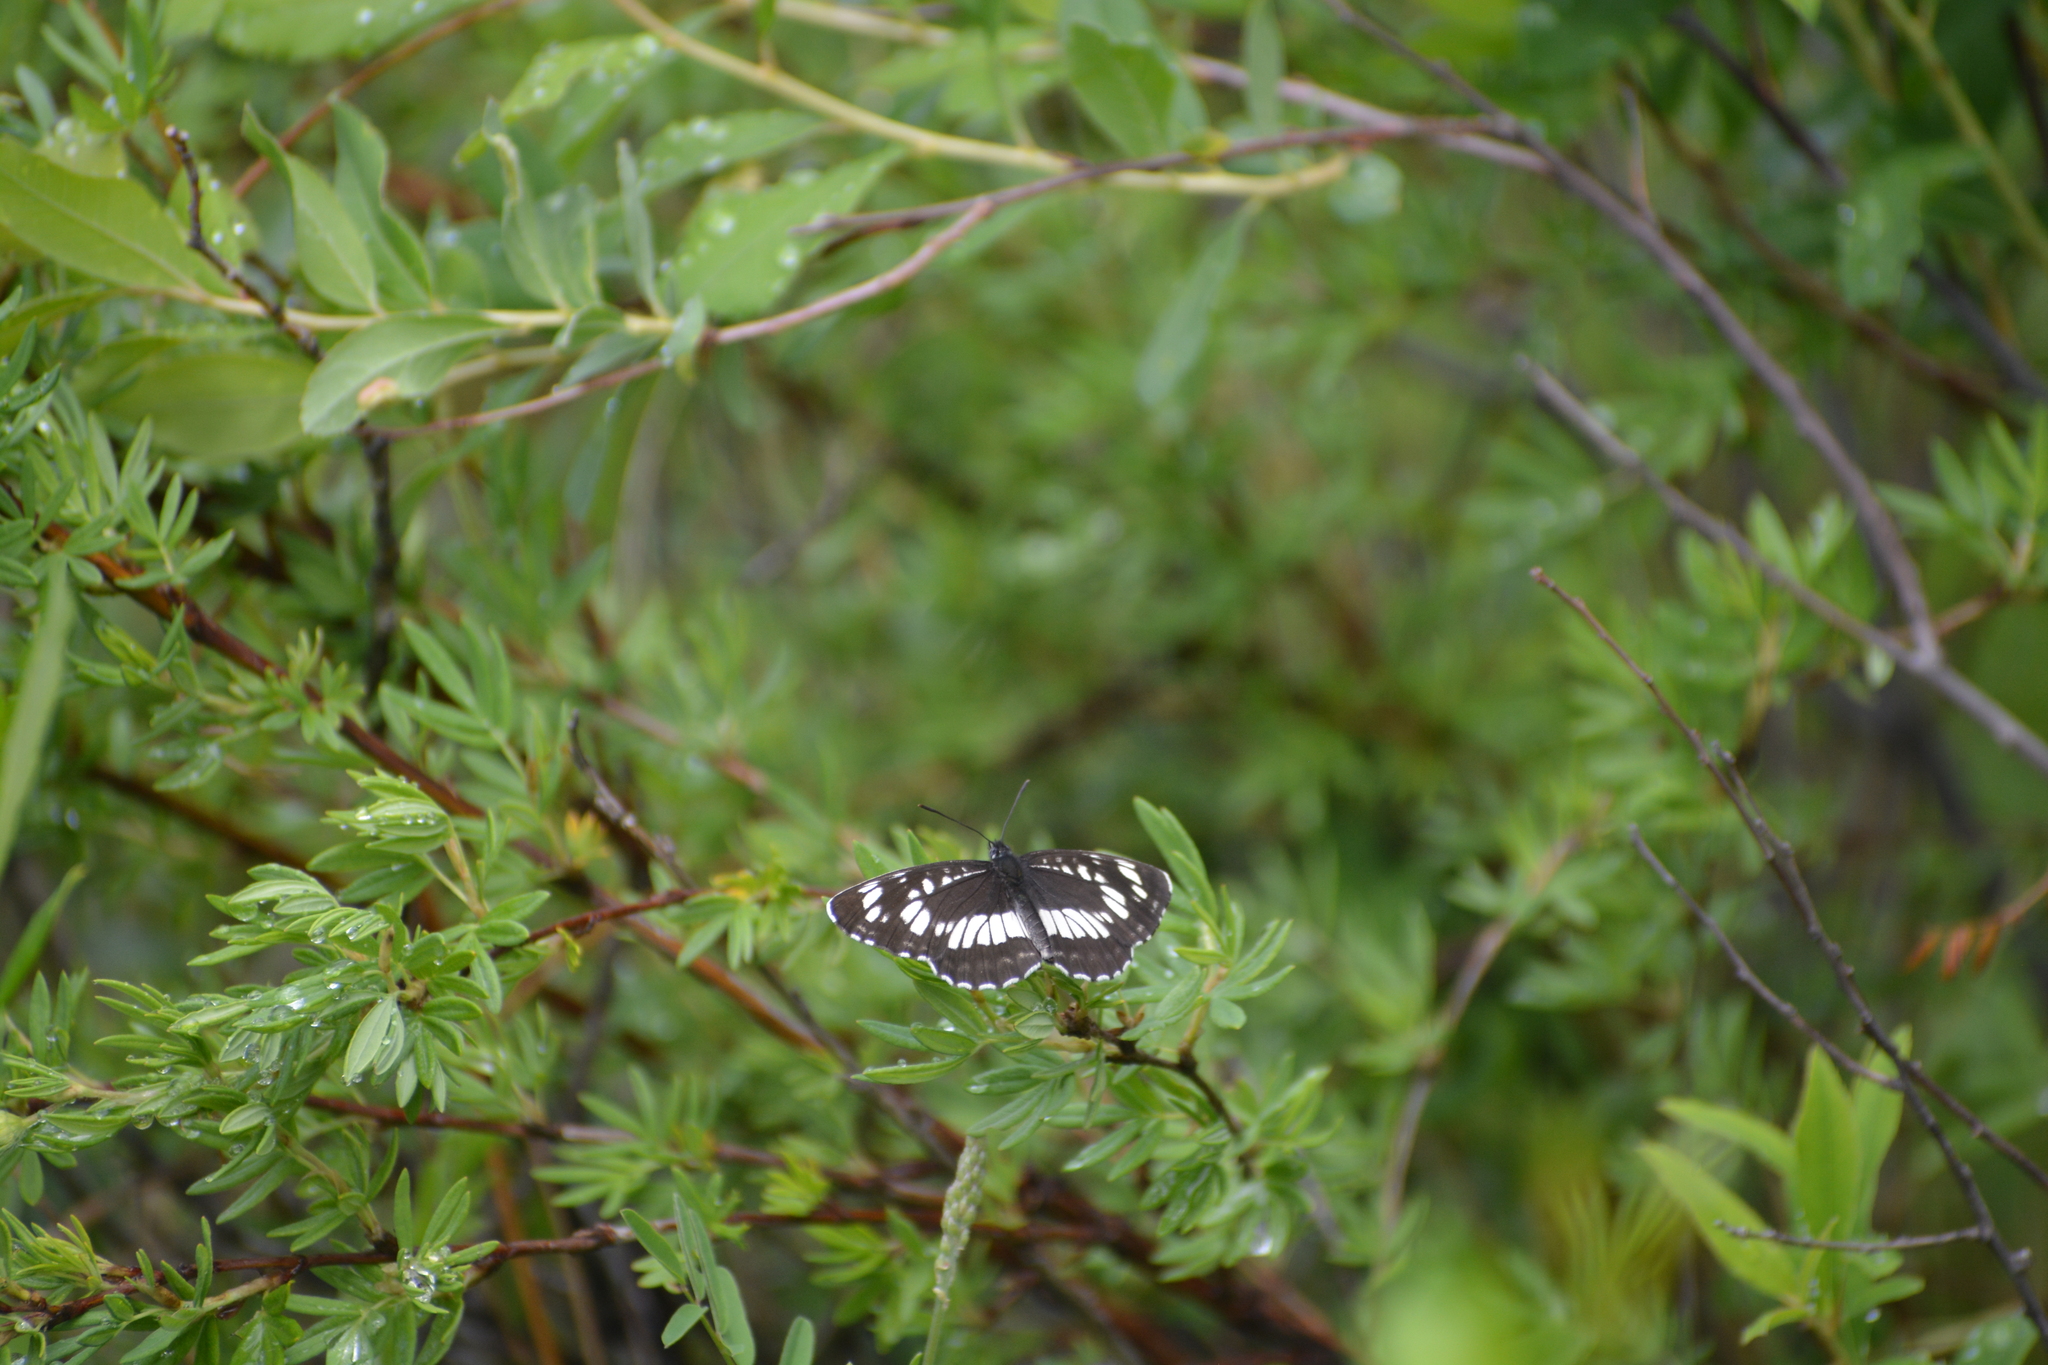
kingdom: Animalia
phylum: Arthropoda
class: Insecta
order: Lepidoptera
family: Nymphalidae
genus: Neptis
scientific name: Neptis rivularis
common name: Hungarian glider
